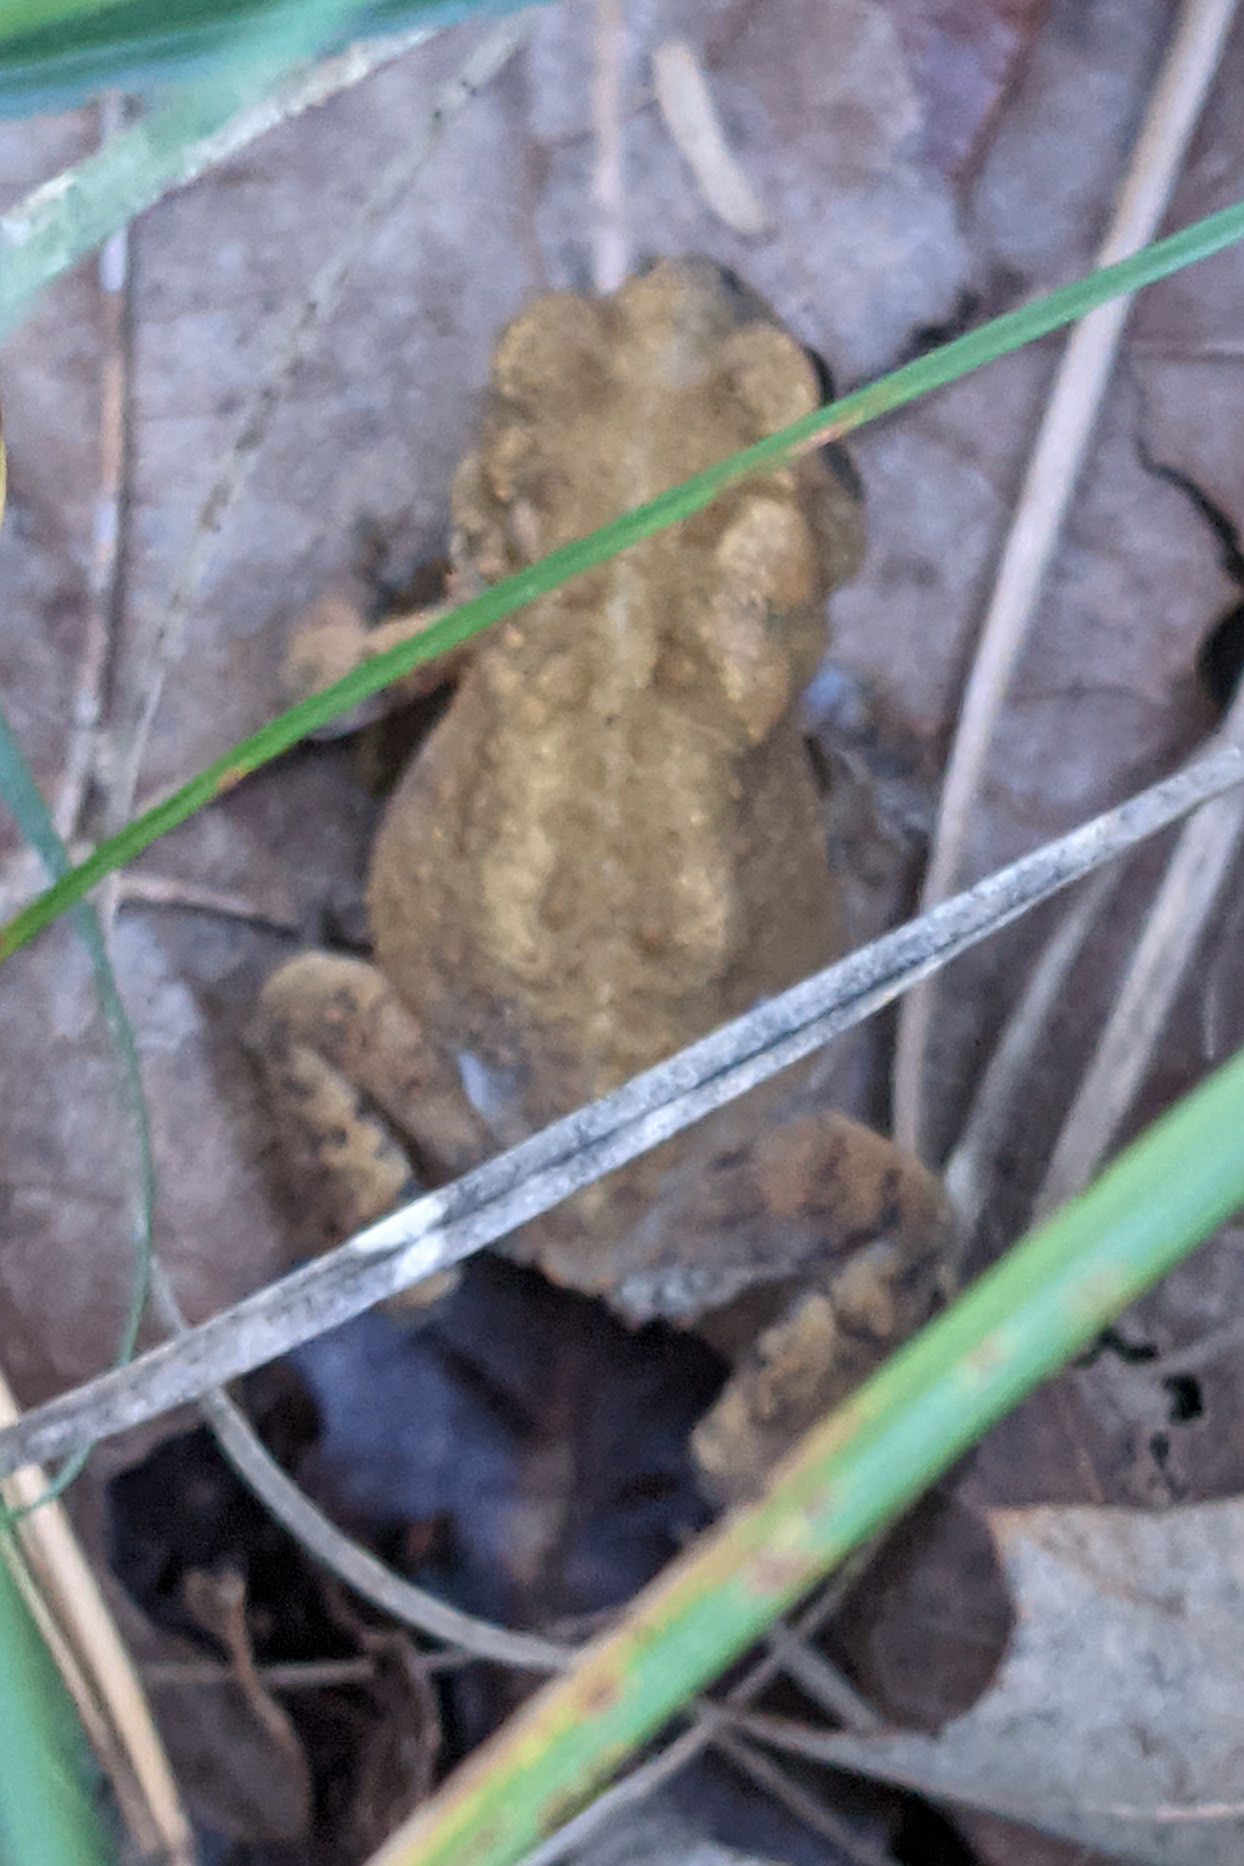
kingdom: Animalia
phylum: Chordata
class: Amphibia
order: Anura
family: Bufonidae
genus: Anaxyrus
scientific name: Anaxyrus americanus
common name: American toad
